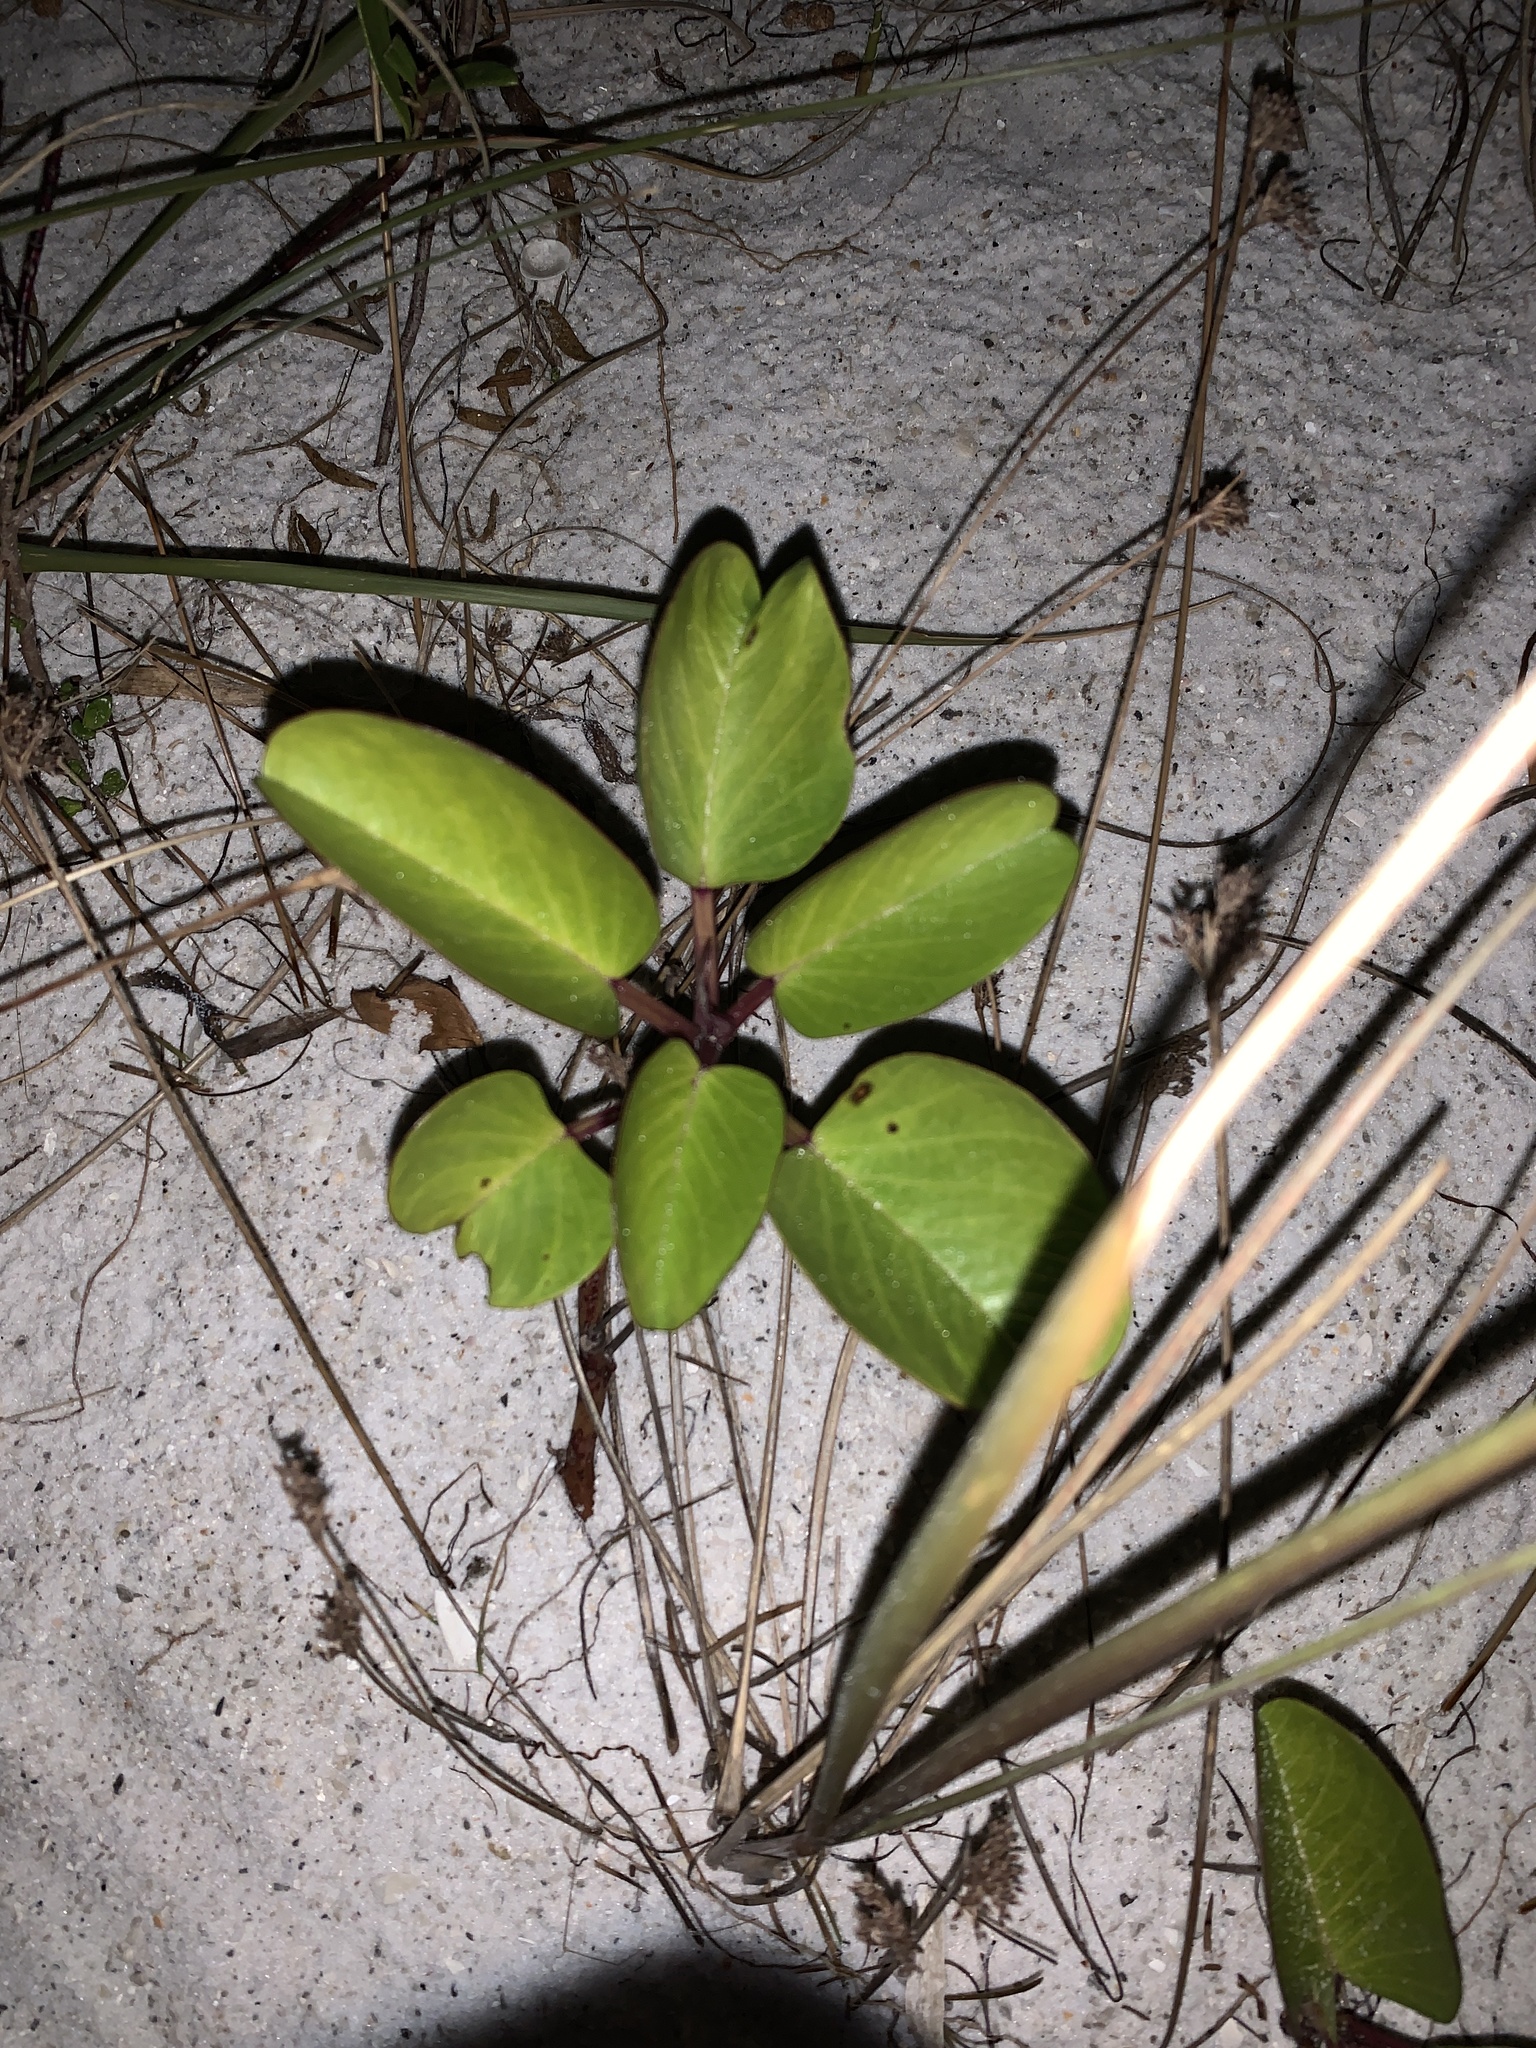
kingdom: Plantae
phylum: Tracheophyta
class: Magnoliopsida
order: Solanales
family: Convolvulaceae
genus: Ipomoea
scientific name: Ipomoea pes-caprae
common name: Beach morning glory
